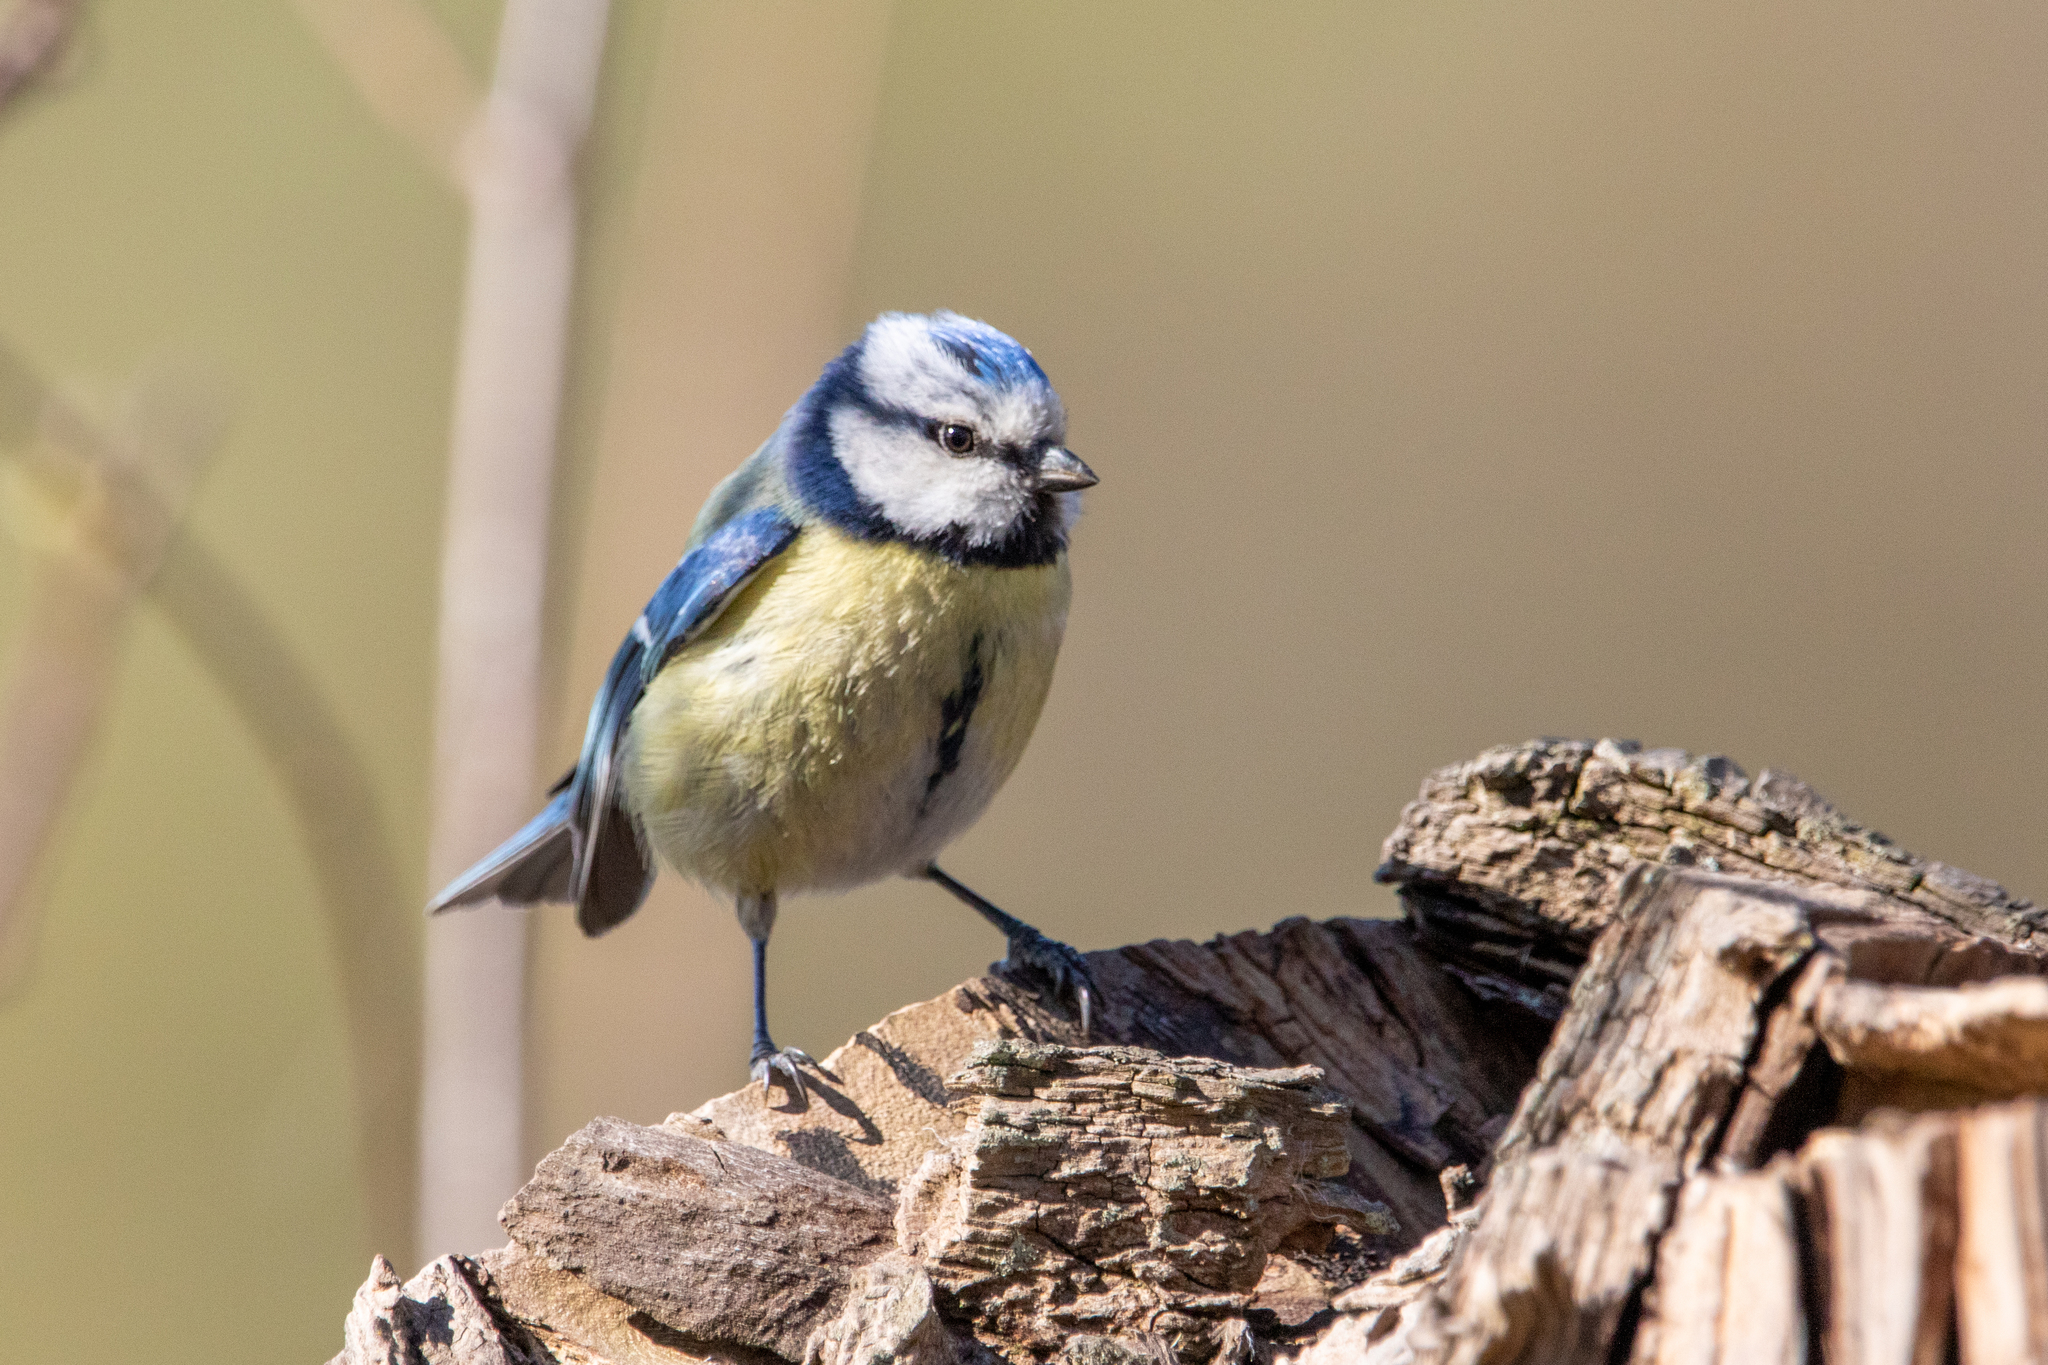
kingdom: Animalia
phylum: Chordata
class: Aves
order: Passeriformes
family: Paridae
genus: Cyanistes
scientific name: Cyanistes caeruleus
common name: Eurasian blue tit
